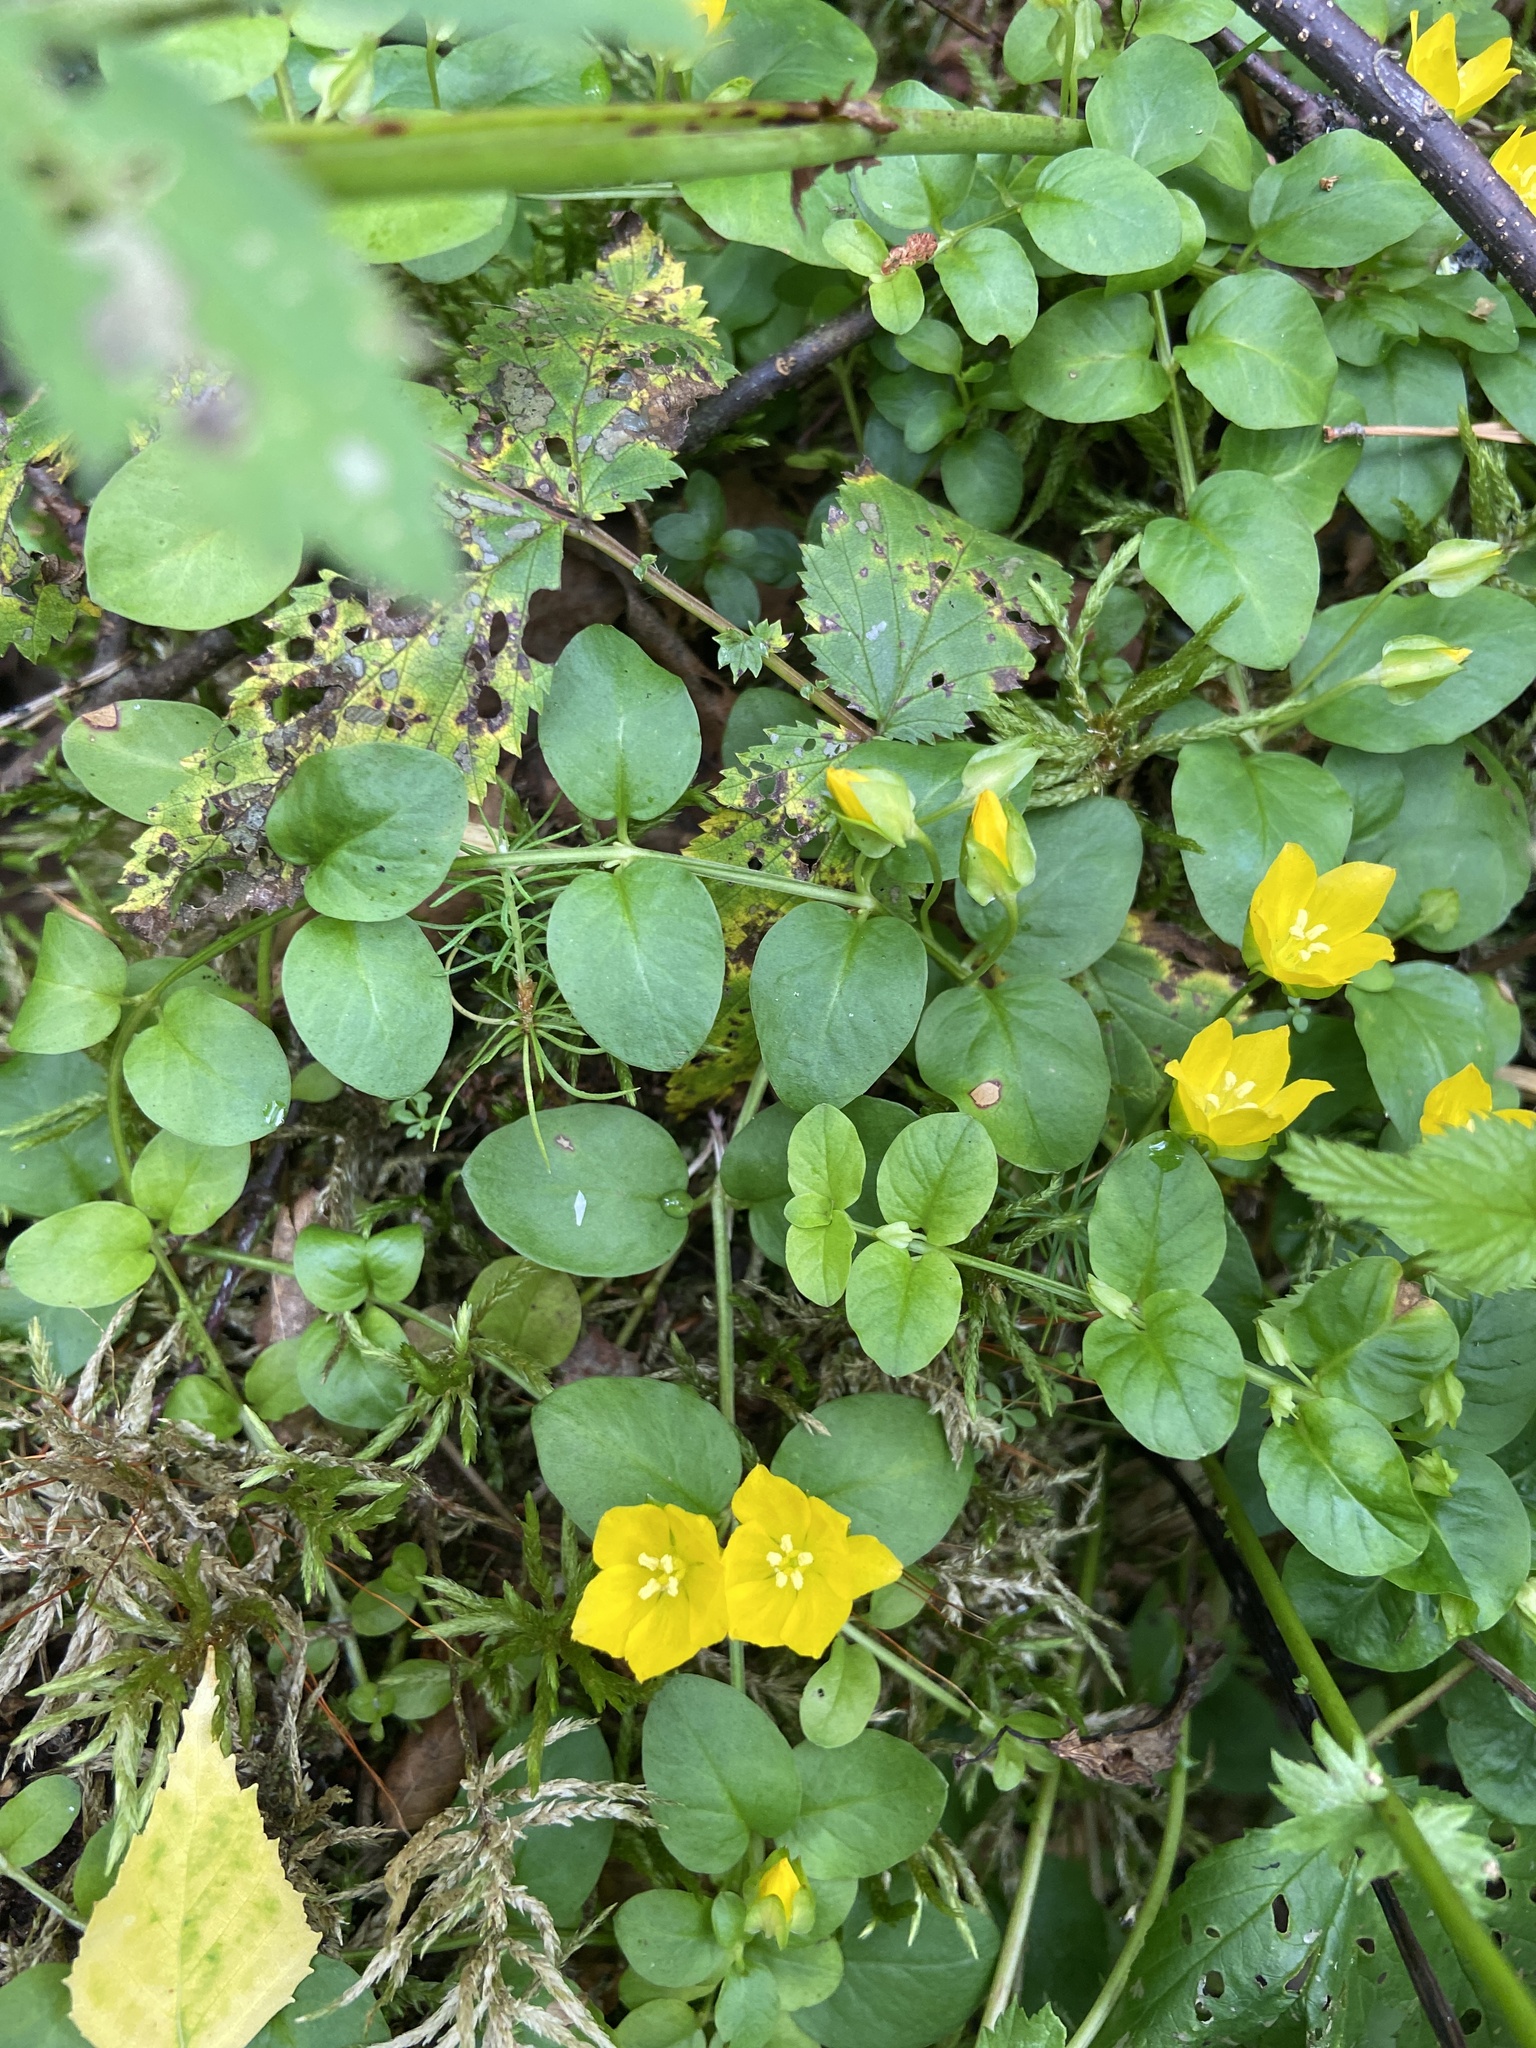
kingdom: Plantae
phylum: Tracheophyta
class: Magnoliopsida
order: Ericales
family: Primulaceae
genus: Lysimachia
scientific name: Lysimachia nummularia
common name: Moneywort
